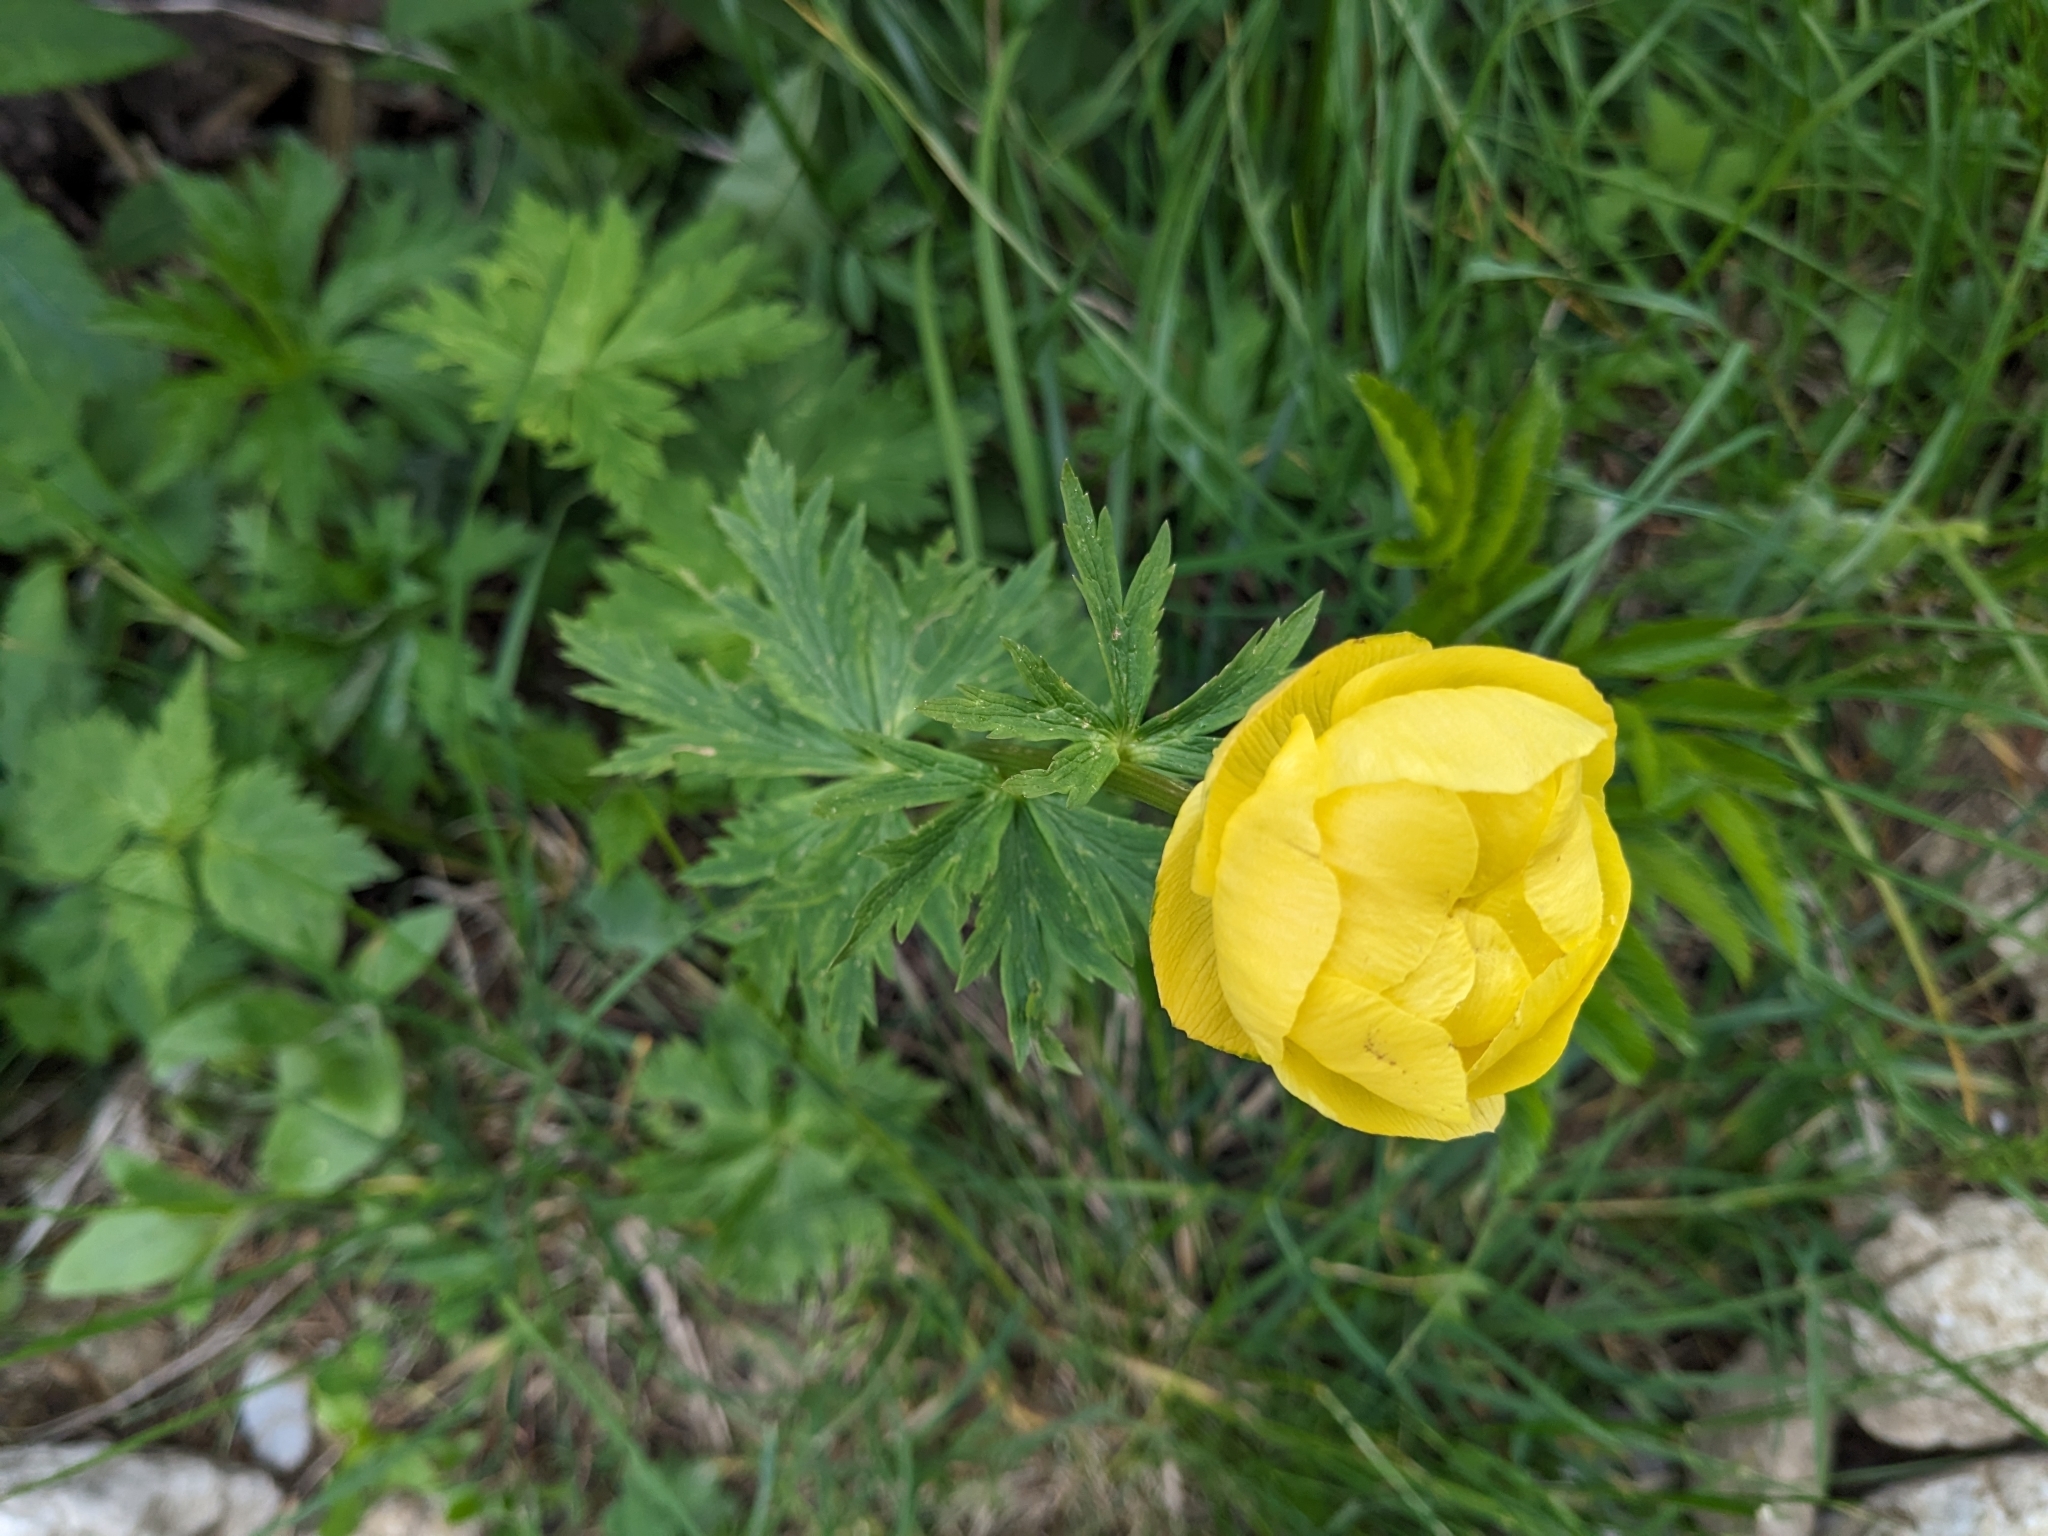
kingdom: Plantae
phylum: Tracheophyta
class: Magnoliopsida
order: Ranunculales
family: Ranunculaceae
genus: Trollius
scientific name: Trollius europaeus
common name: European globeflower
